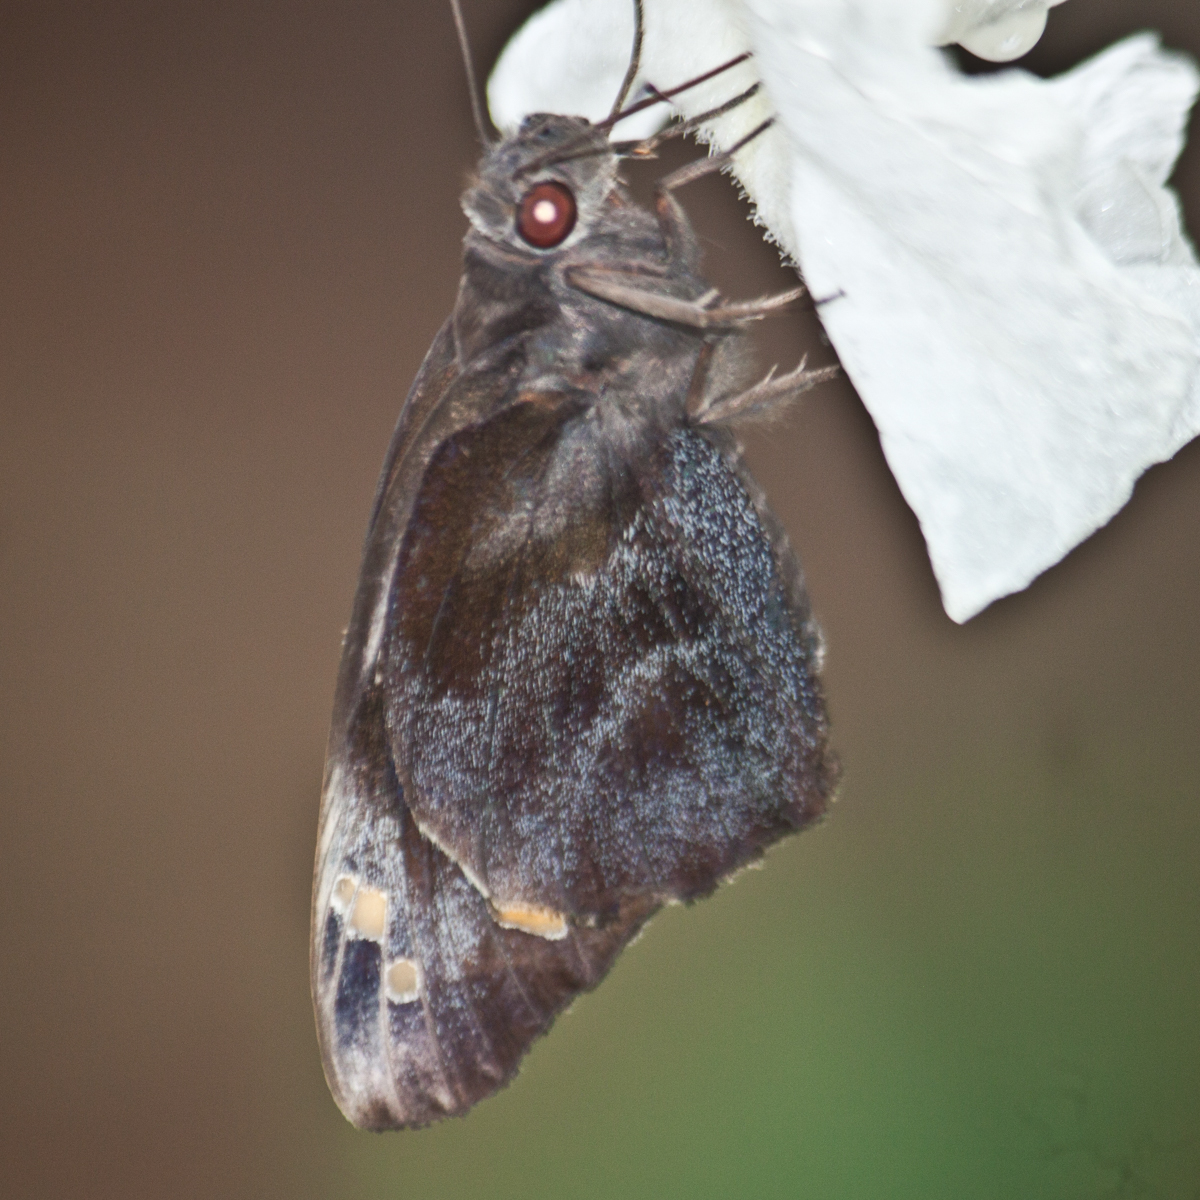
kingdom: Animalia
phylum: Arthropoda
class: Insecta
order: Lepidoptera
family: Hesperiidae
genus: Gangara
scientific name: Gangara thyrsis
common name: Giant redeye
